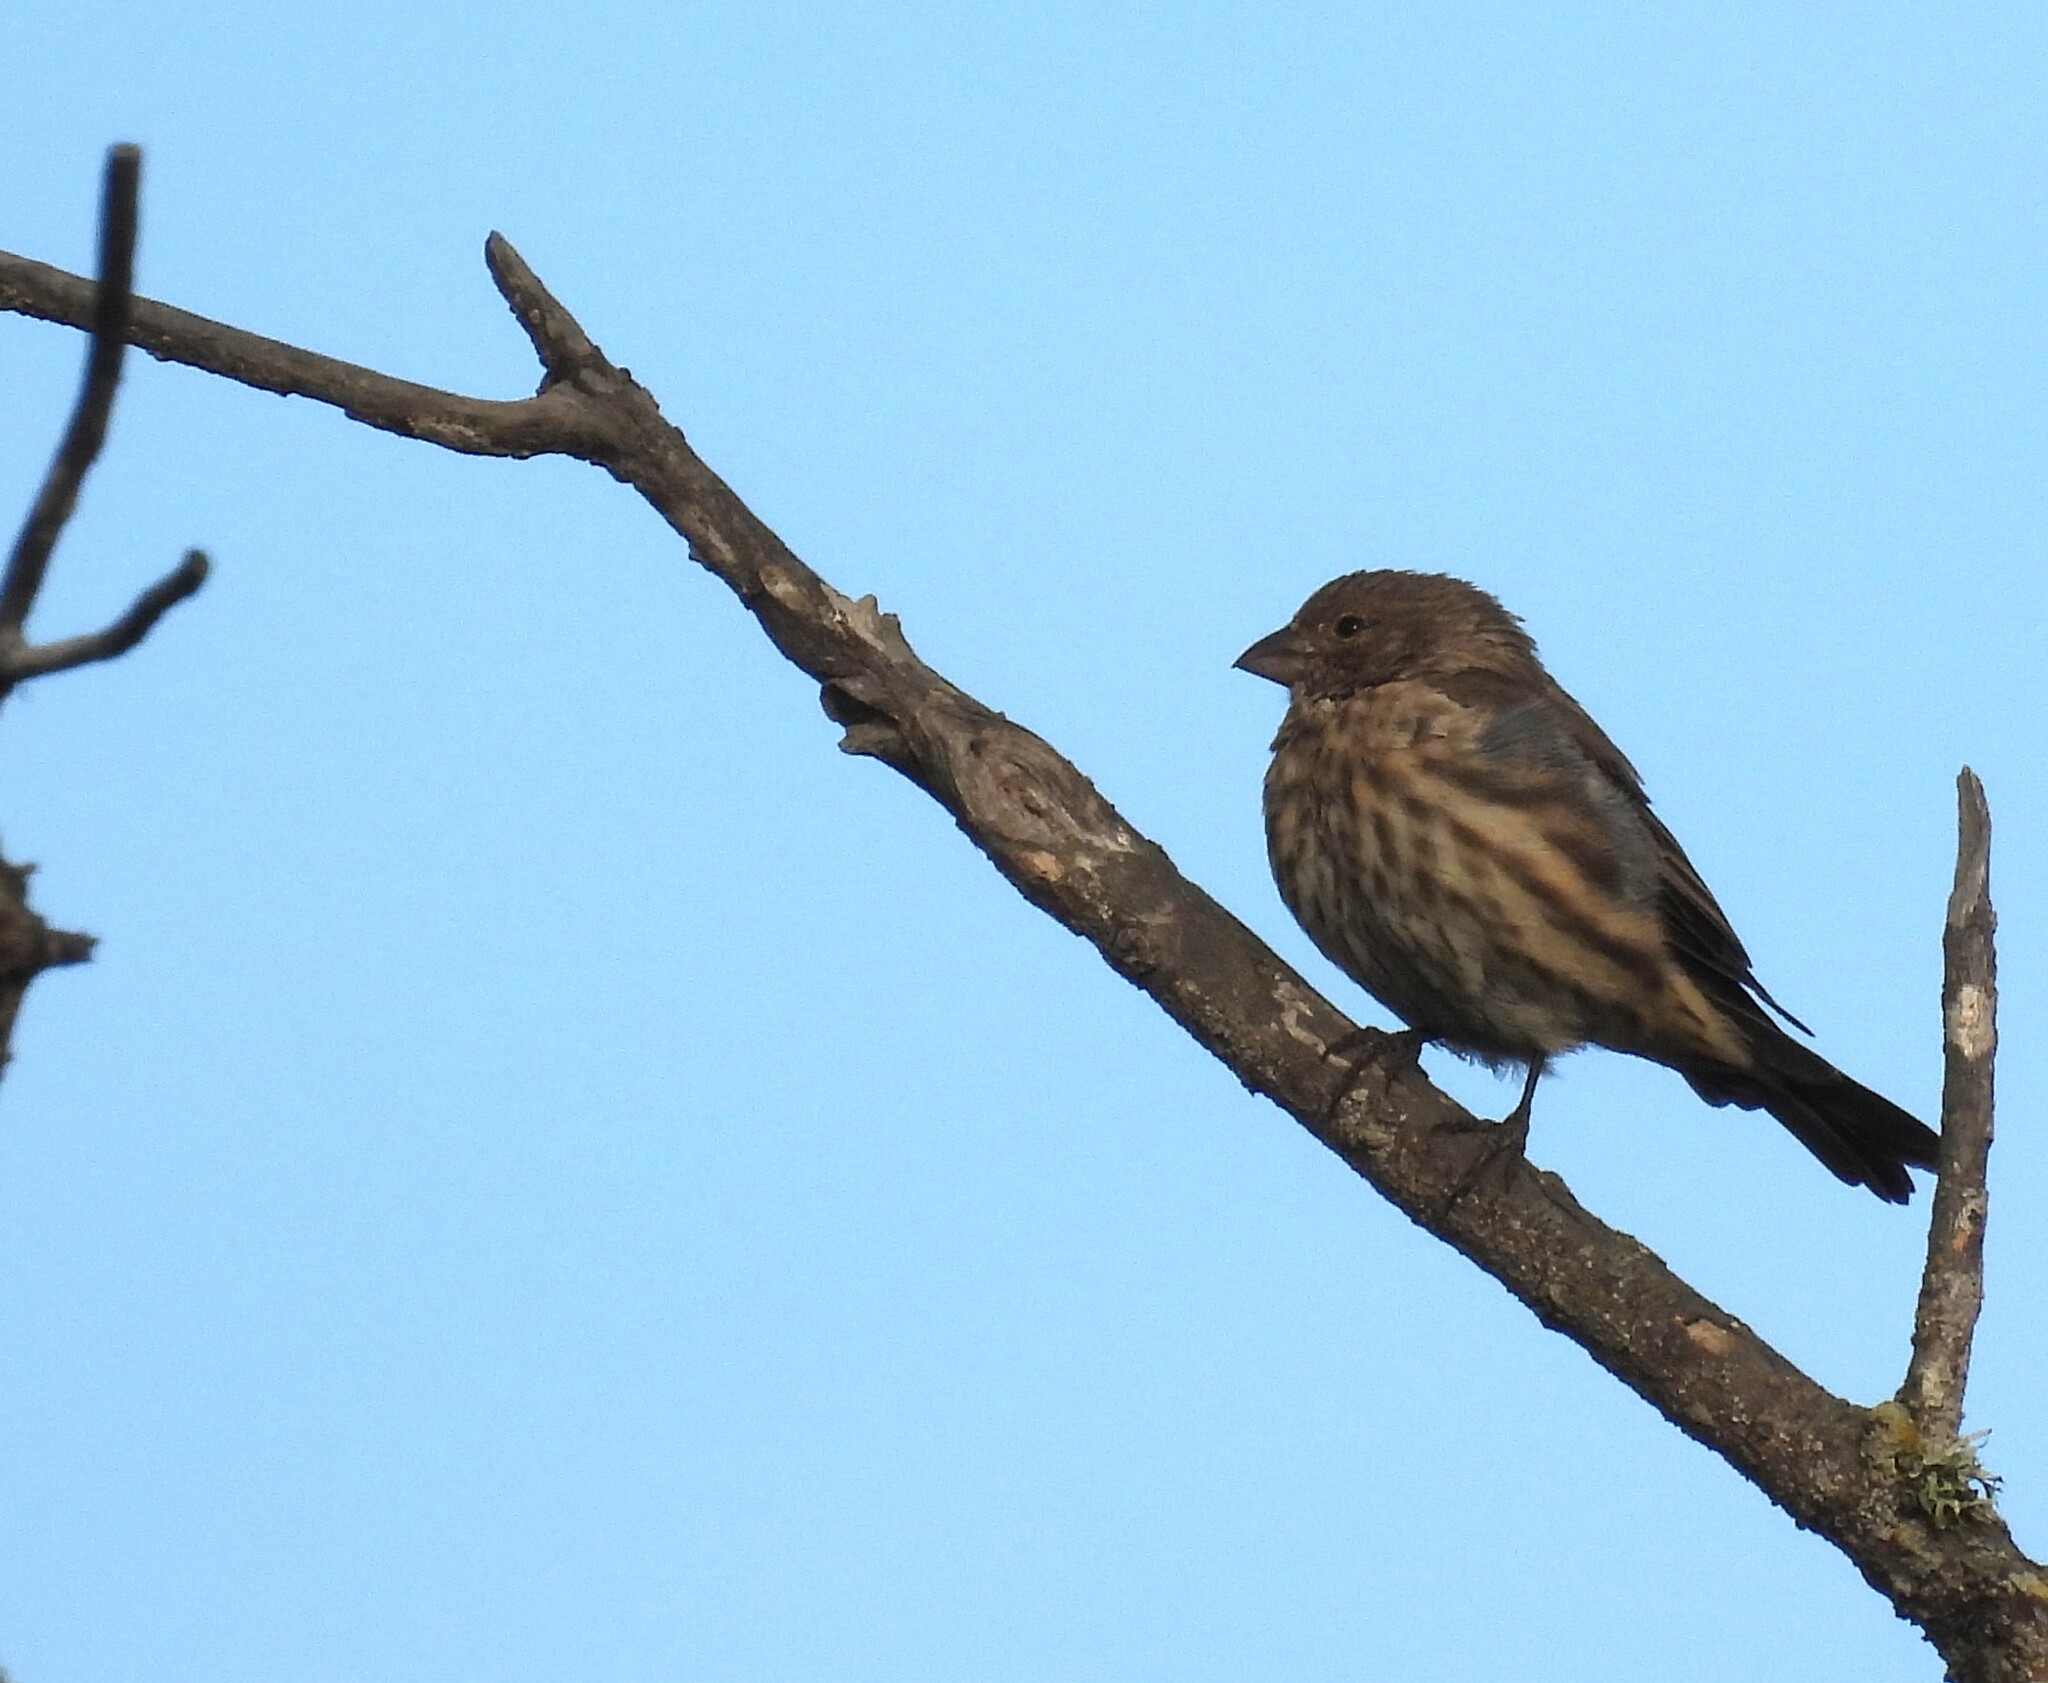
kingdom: Animalia
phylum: Chordata
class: Aves
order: Passeriformes
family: Fringillidae
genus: Haemorhous
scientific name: Haemorhous mexicanus
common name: House finch
